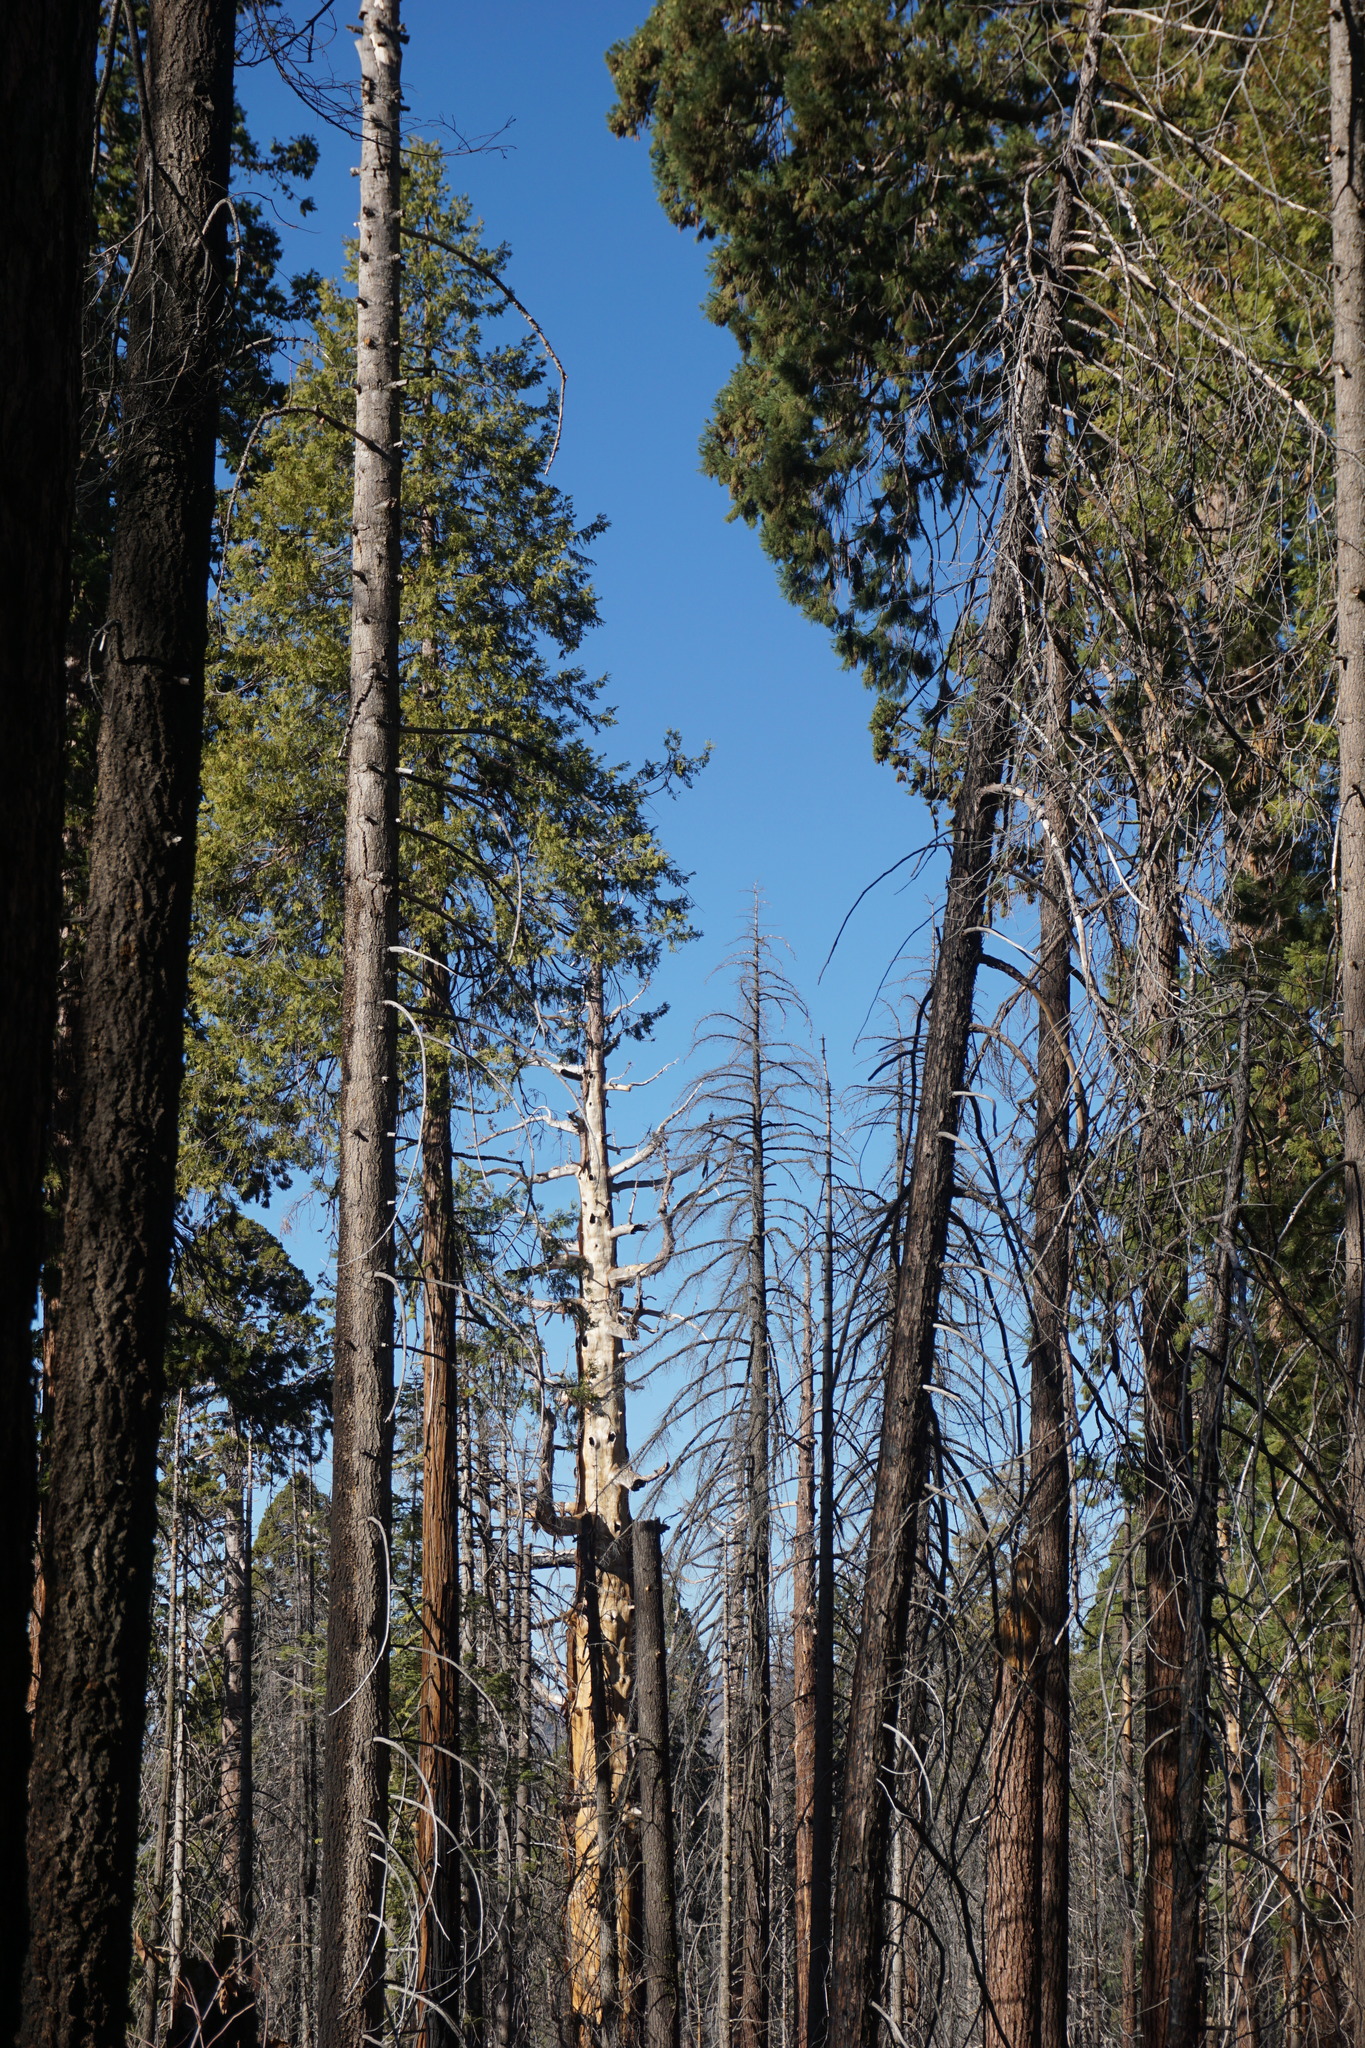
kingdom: Plantae
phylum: Tracheophyta
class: Pinopsida
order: Pinales
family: Cupressaceae
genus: Sequoiadendron
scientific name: Sequoiadendron giganteum
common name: Wellingtonia
